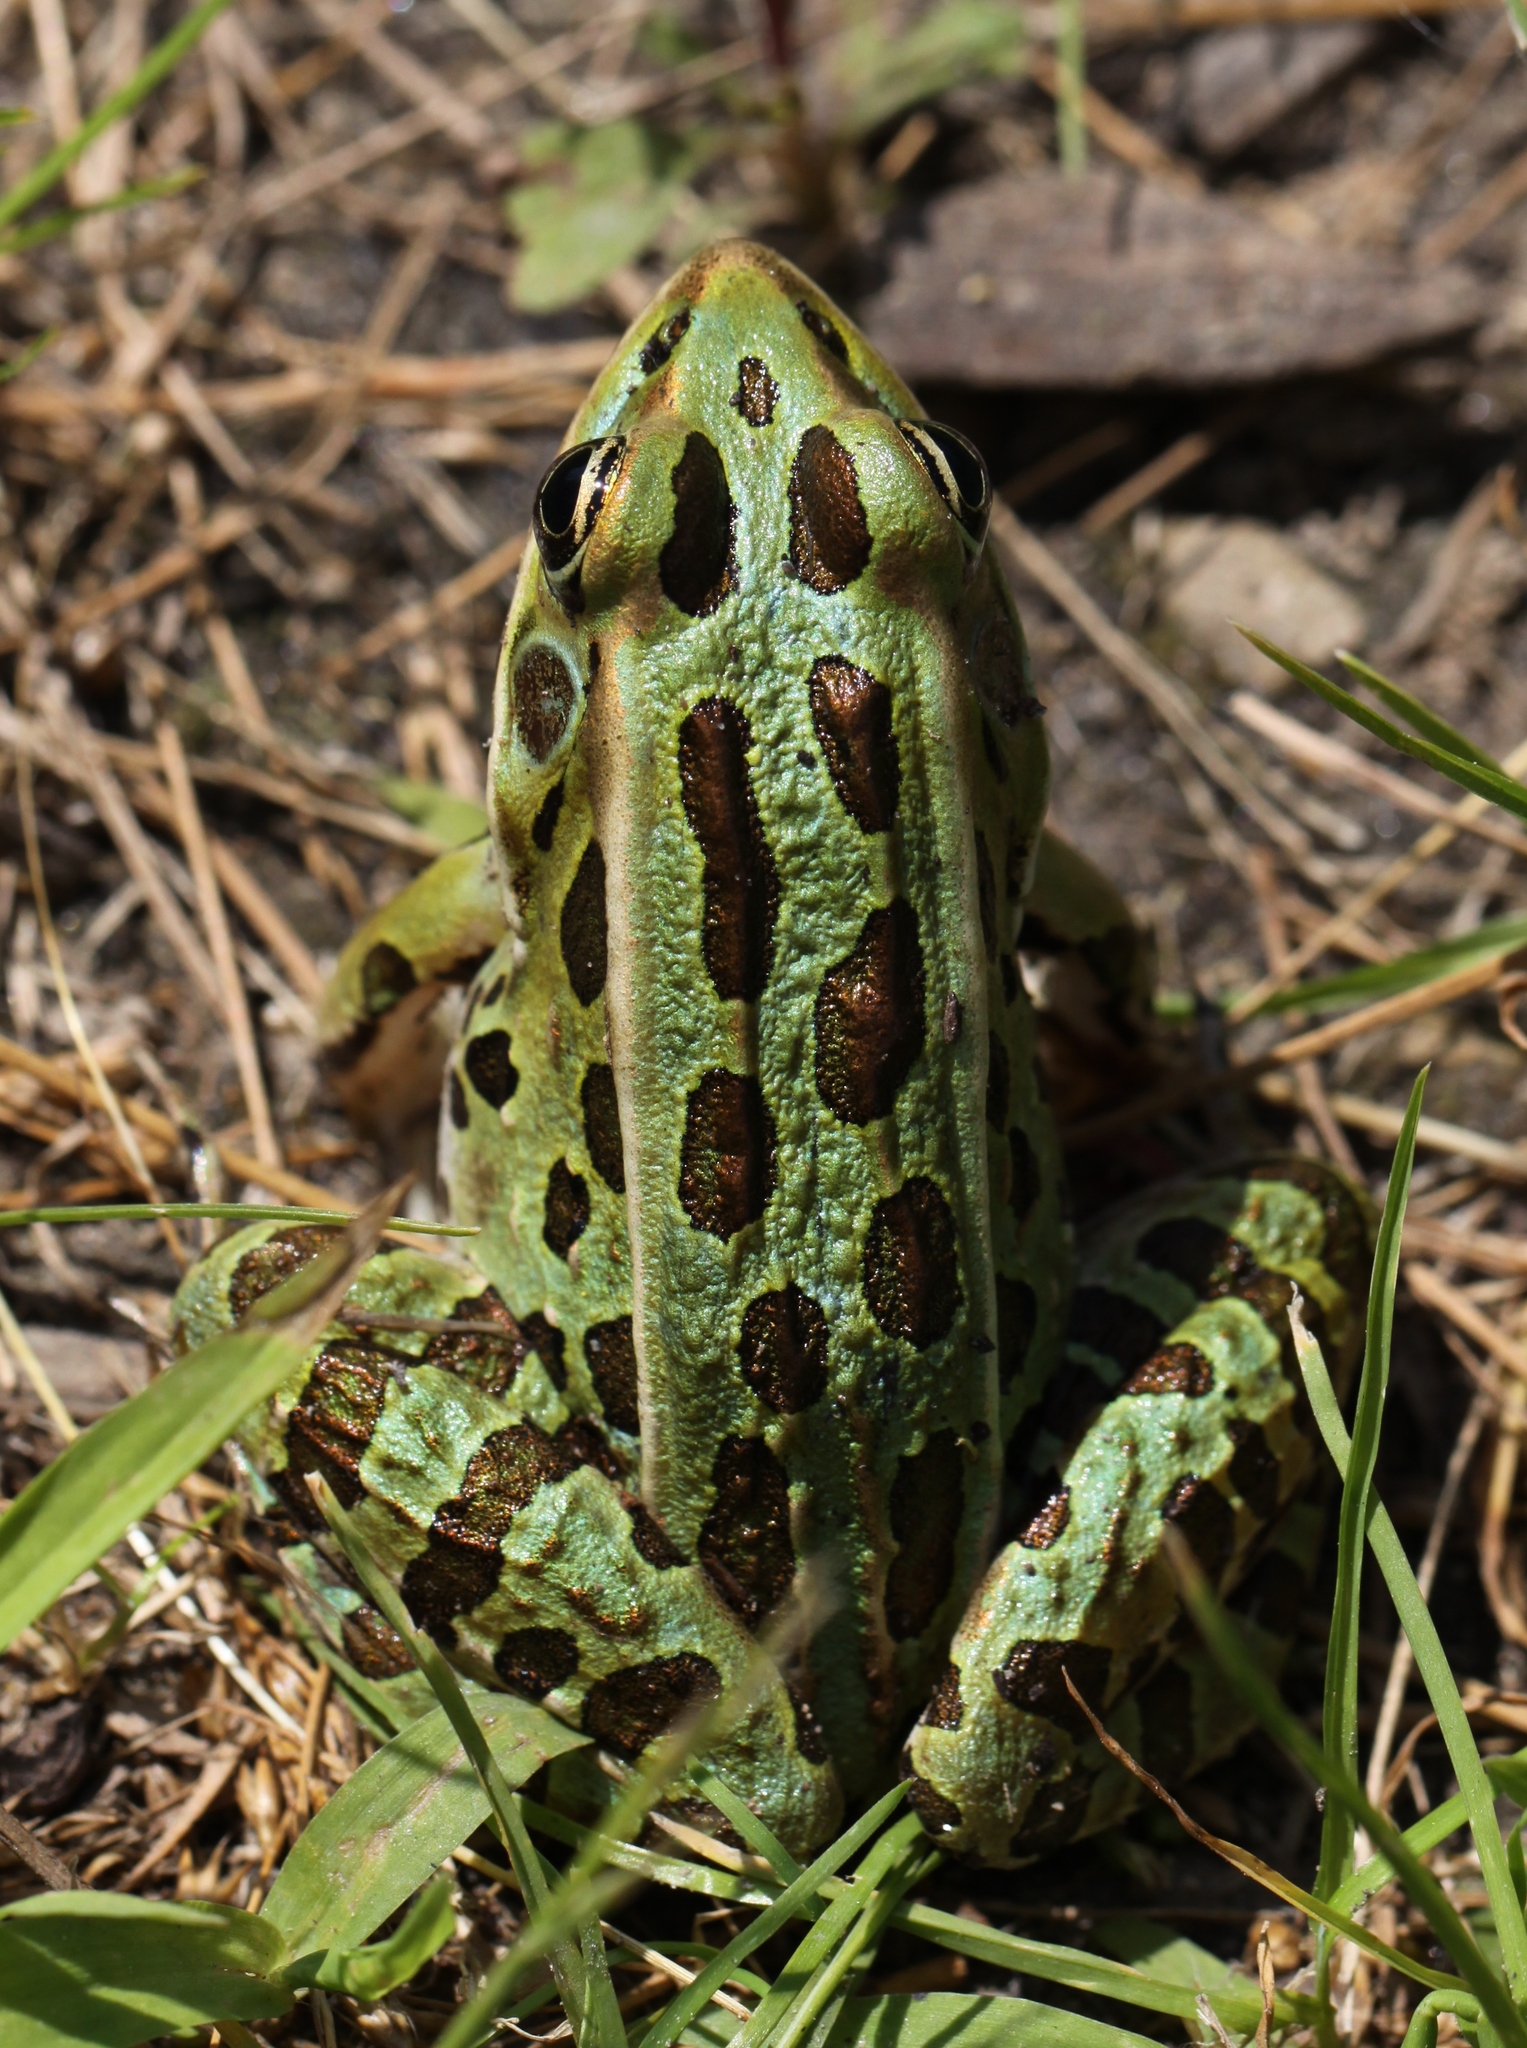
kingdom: Animalia
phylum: Chordata
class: Amphibia
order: Anura
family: Ranidae
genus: Lithobates
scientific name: Lithobates pipiens
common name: Northern leopard frog
